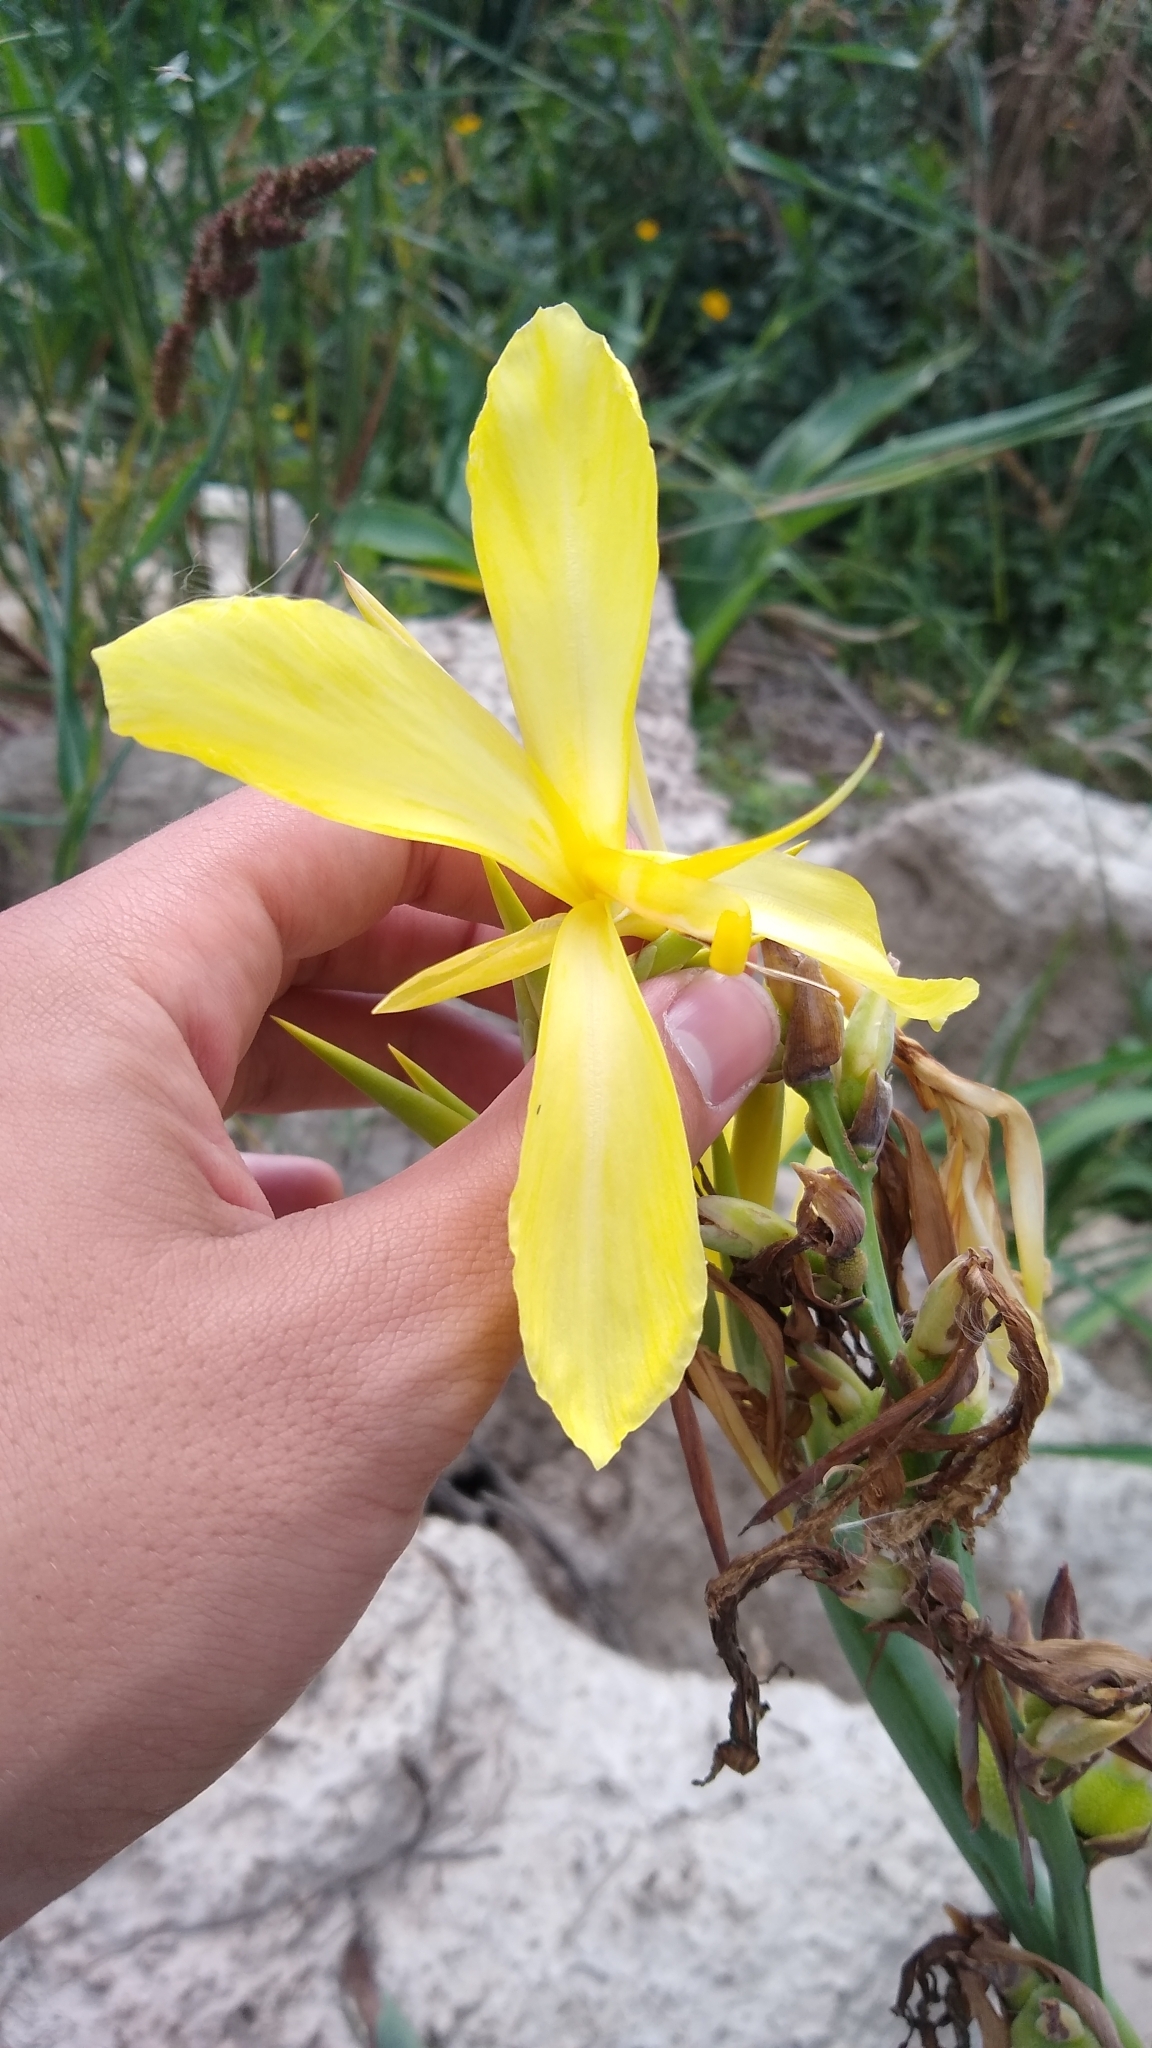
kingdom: Plantae
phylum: Tracheophyta
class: Liliopsida
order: Zingiberales
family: Cannaceae
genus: Canna
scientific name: Canna glauca
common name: Louisiana canna
